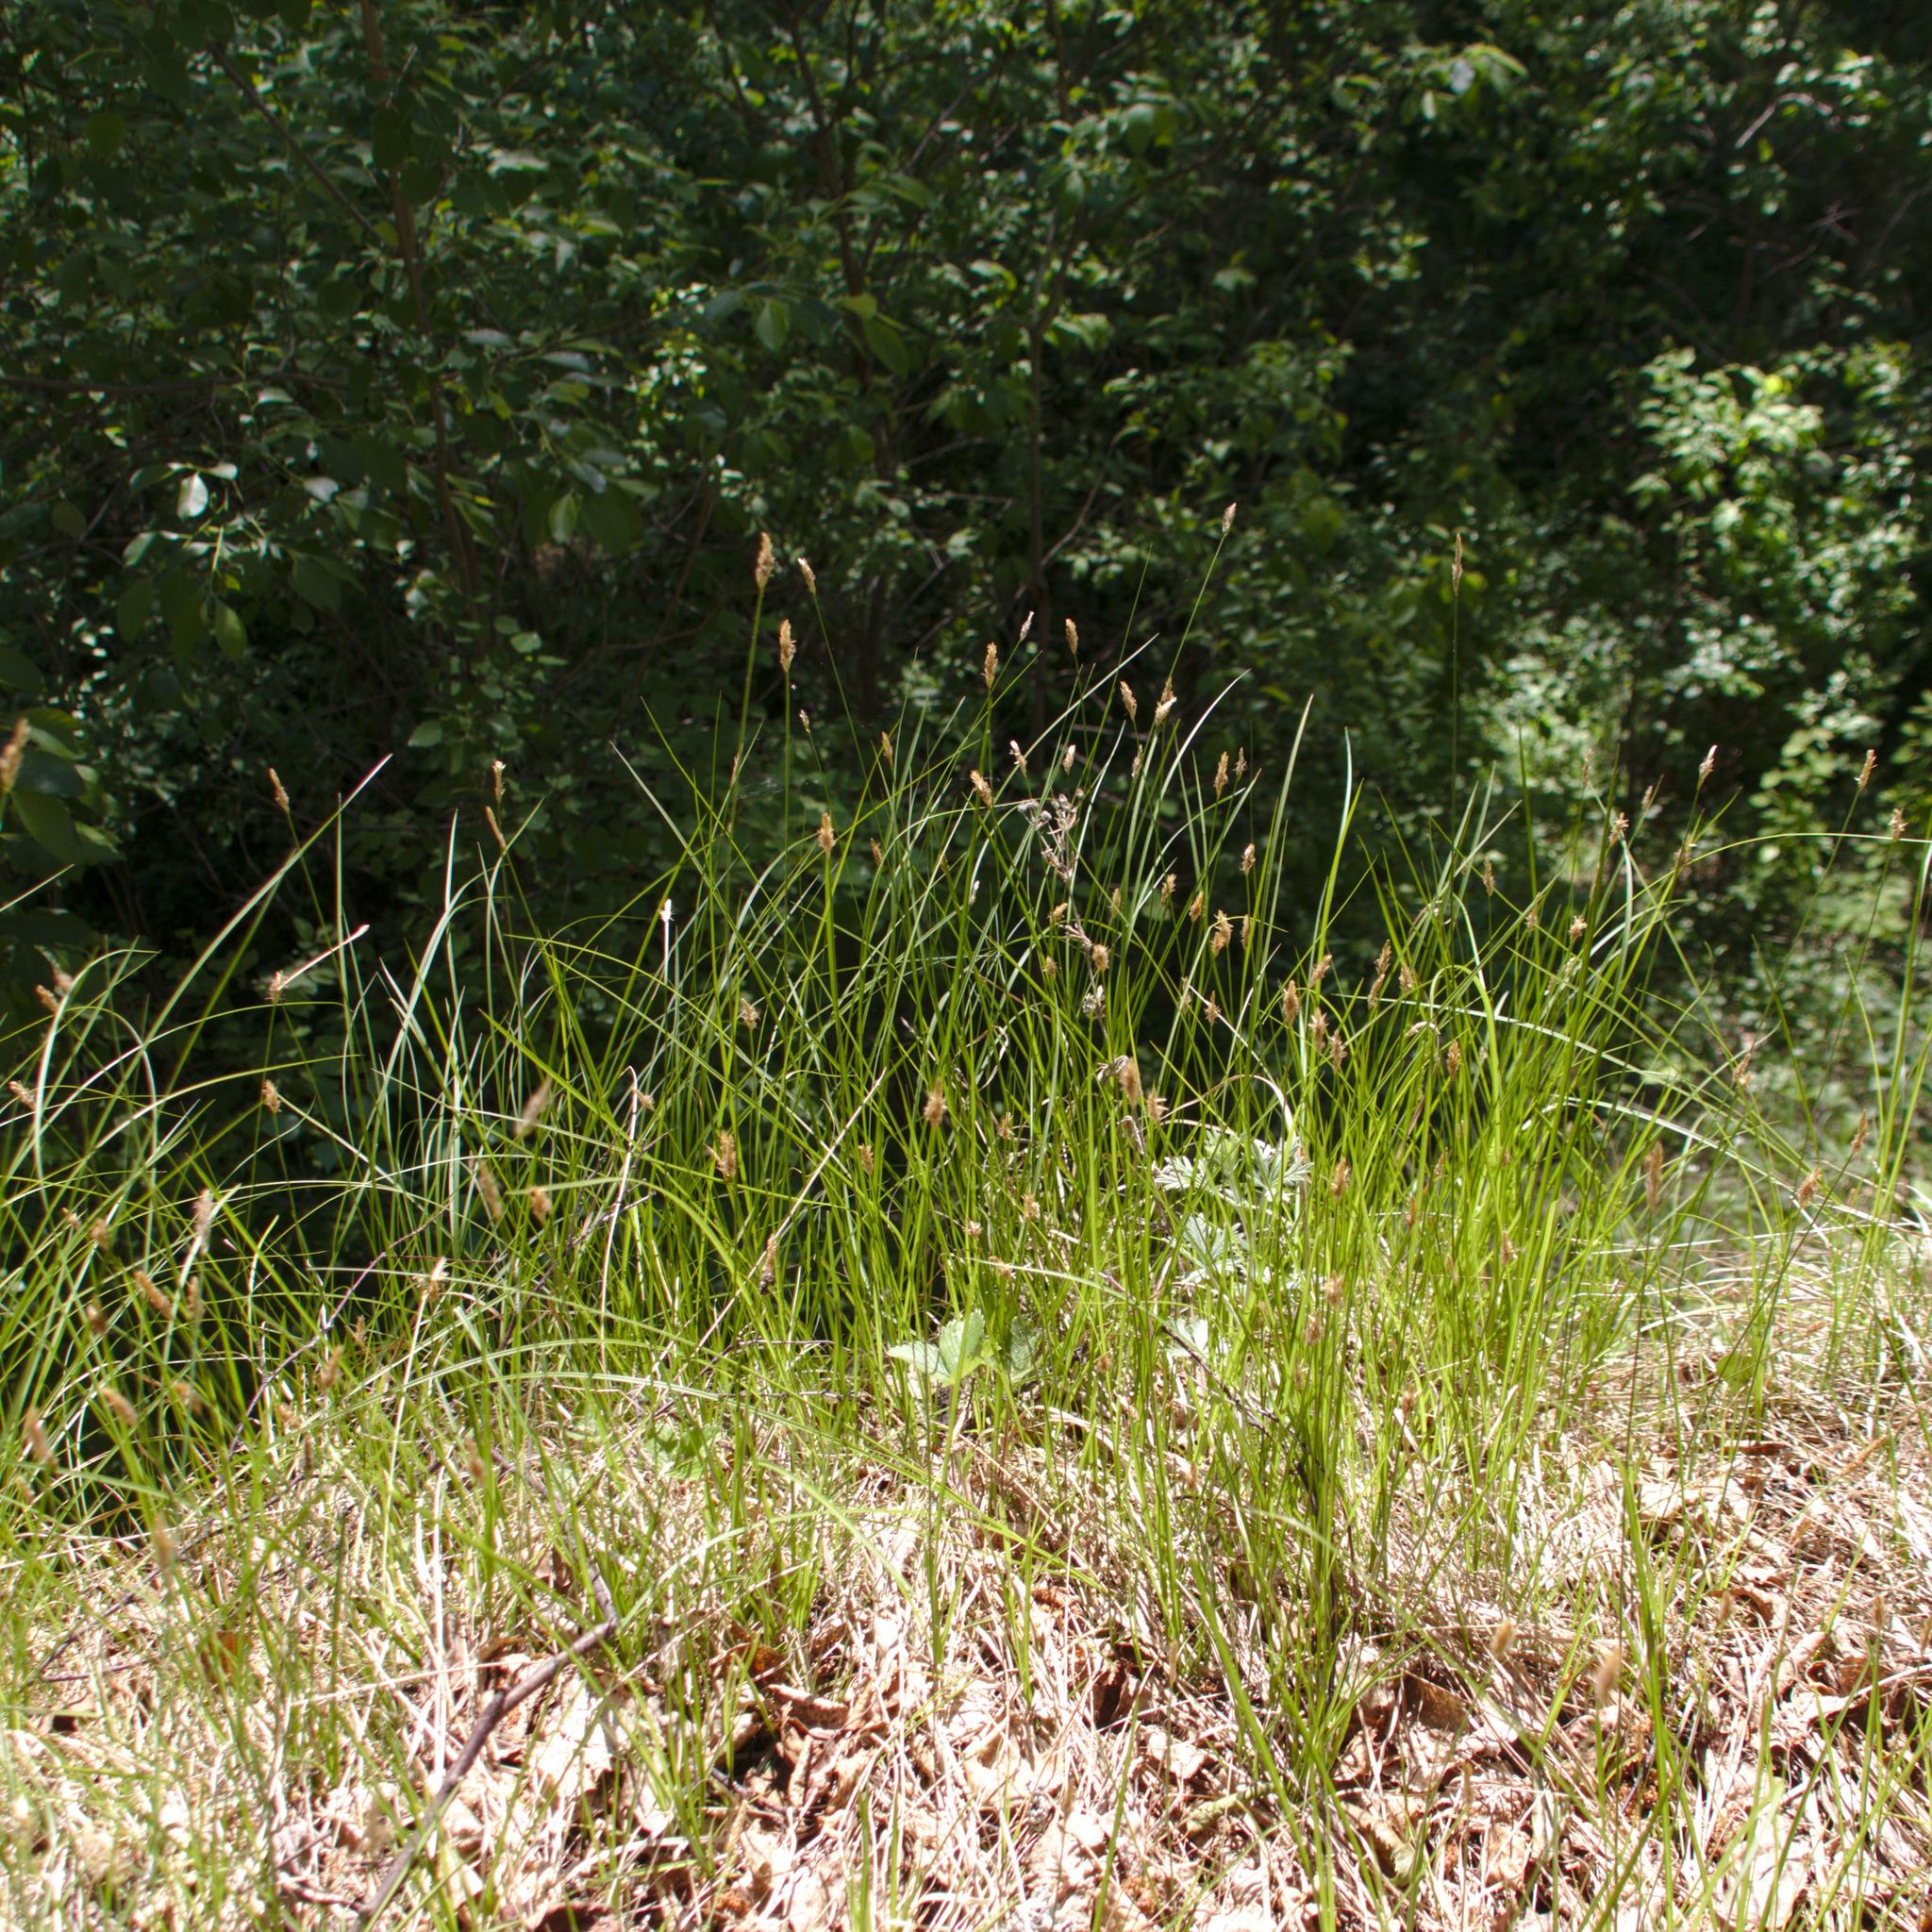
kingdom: Plantae
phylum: Tracheophyta
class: Liliopsida
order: Poales
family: Cyperaceae
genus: Eleocharis
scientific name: Eleocharis mamillata
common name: Northern spike-rush
